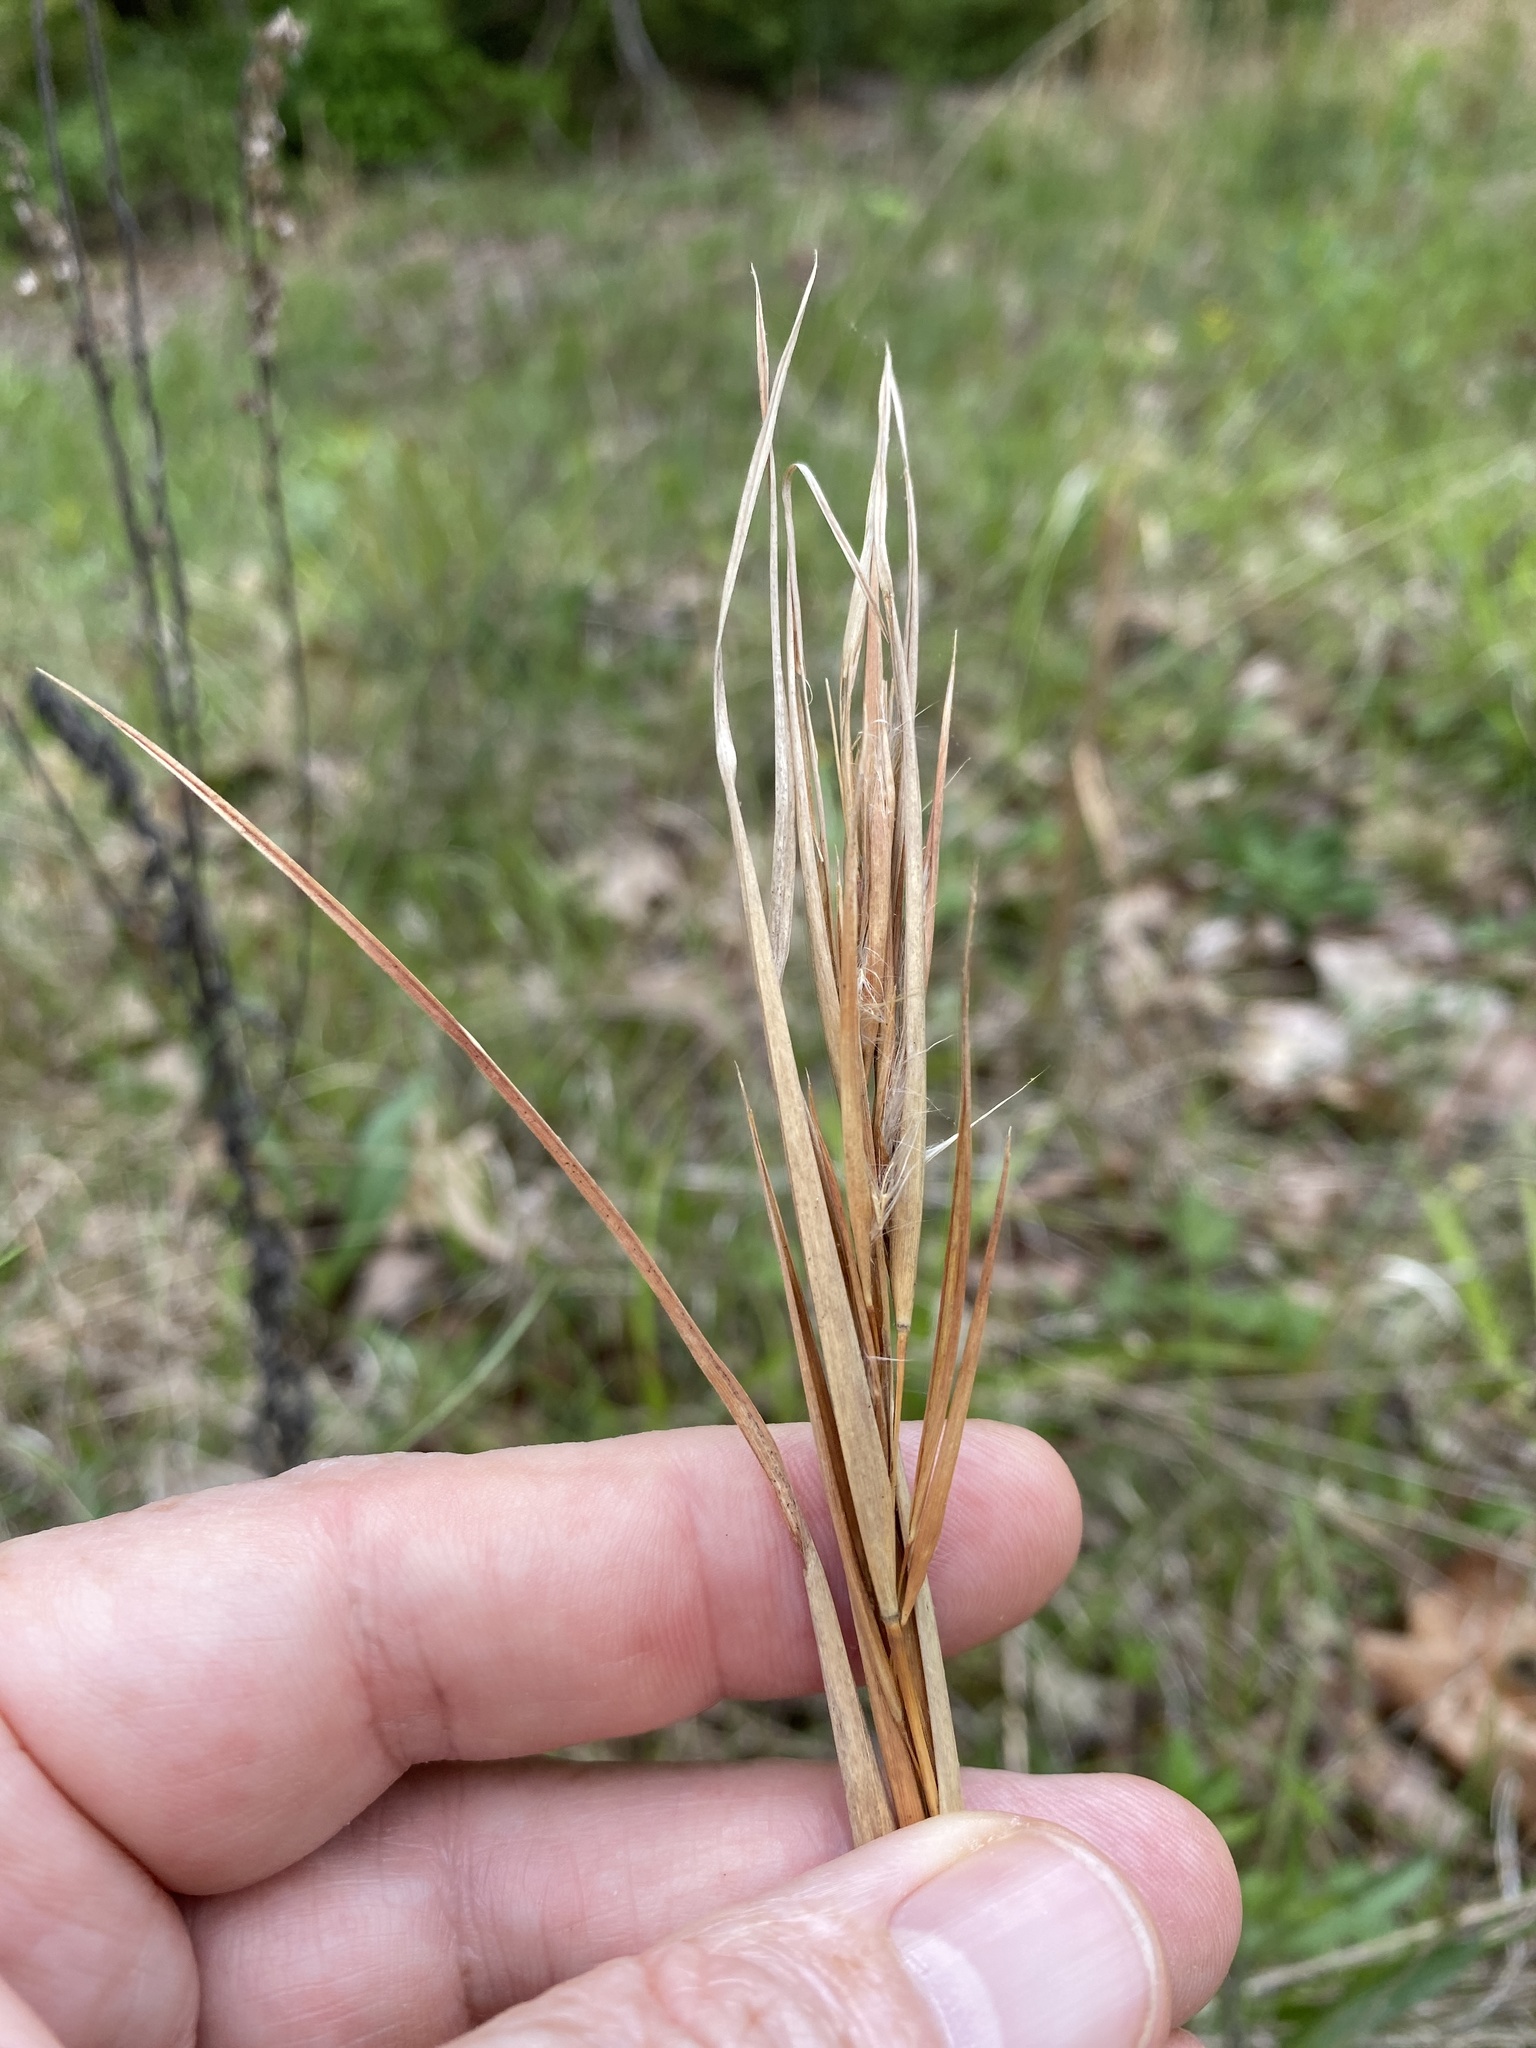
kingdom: Plantae
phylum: Tracheophyta
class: Liliopsida
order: Poales
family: Poaceae
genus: Andropogon
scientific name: Andropogon gyrans
